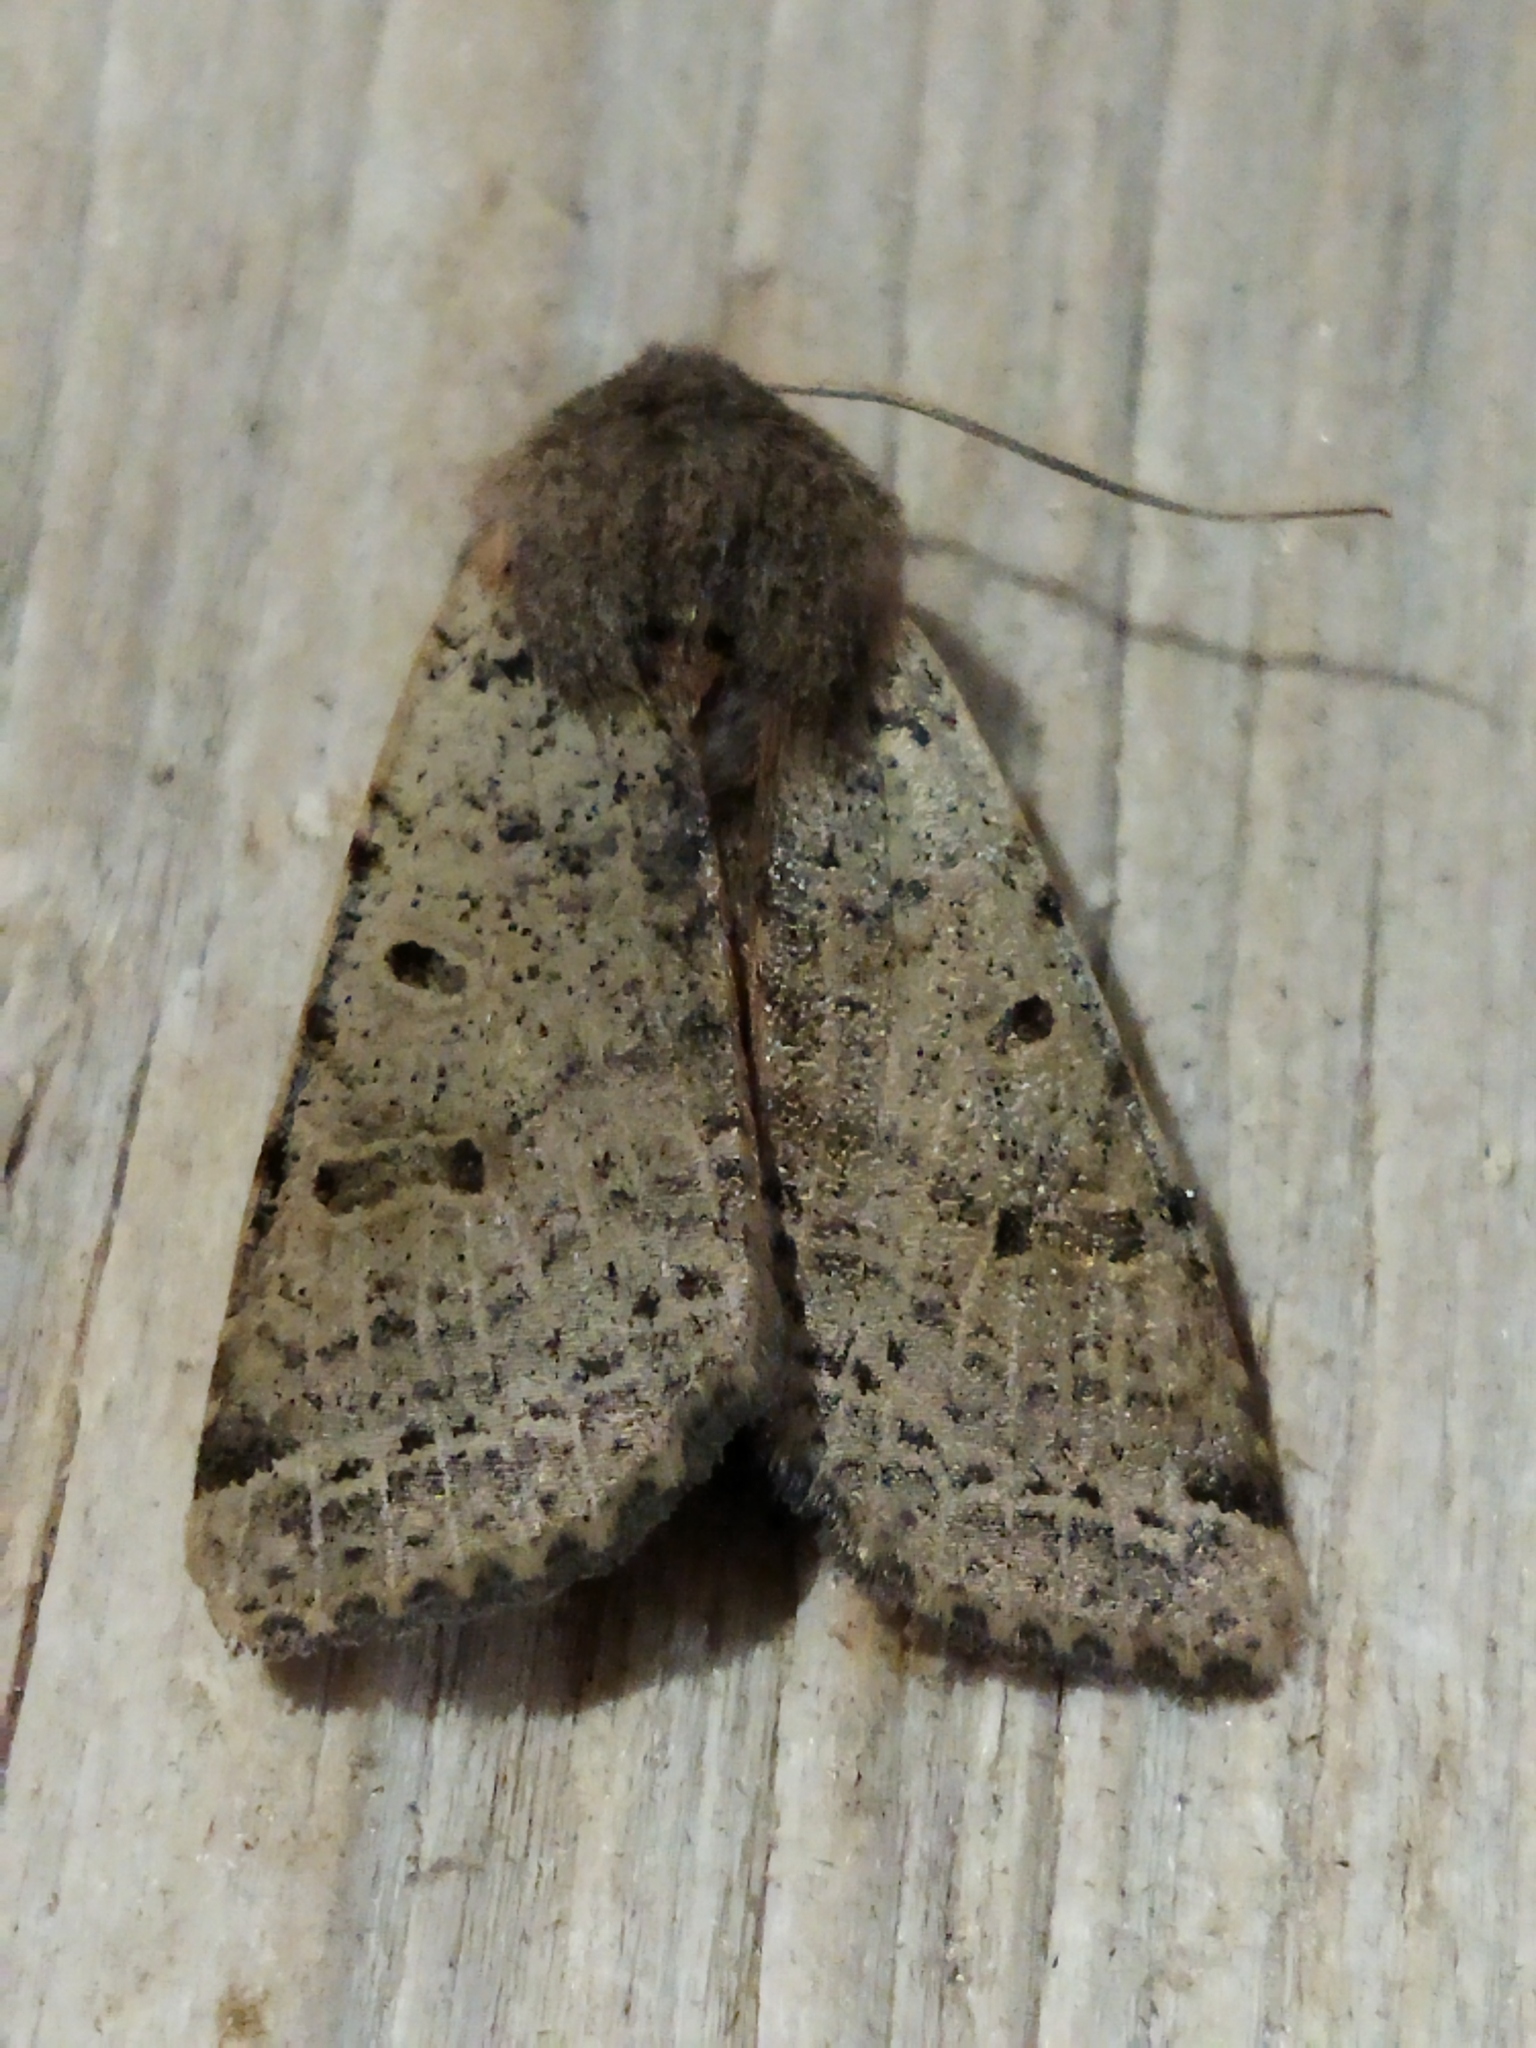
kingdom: Animalia
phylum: Arthropoda
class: Insecta
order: Lepidoptera
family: Noctuidae
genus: Agrochola
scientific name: Agrochola lychnidis
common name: Beaded chestnut
